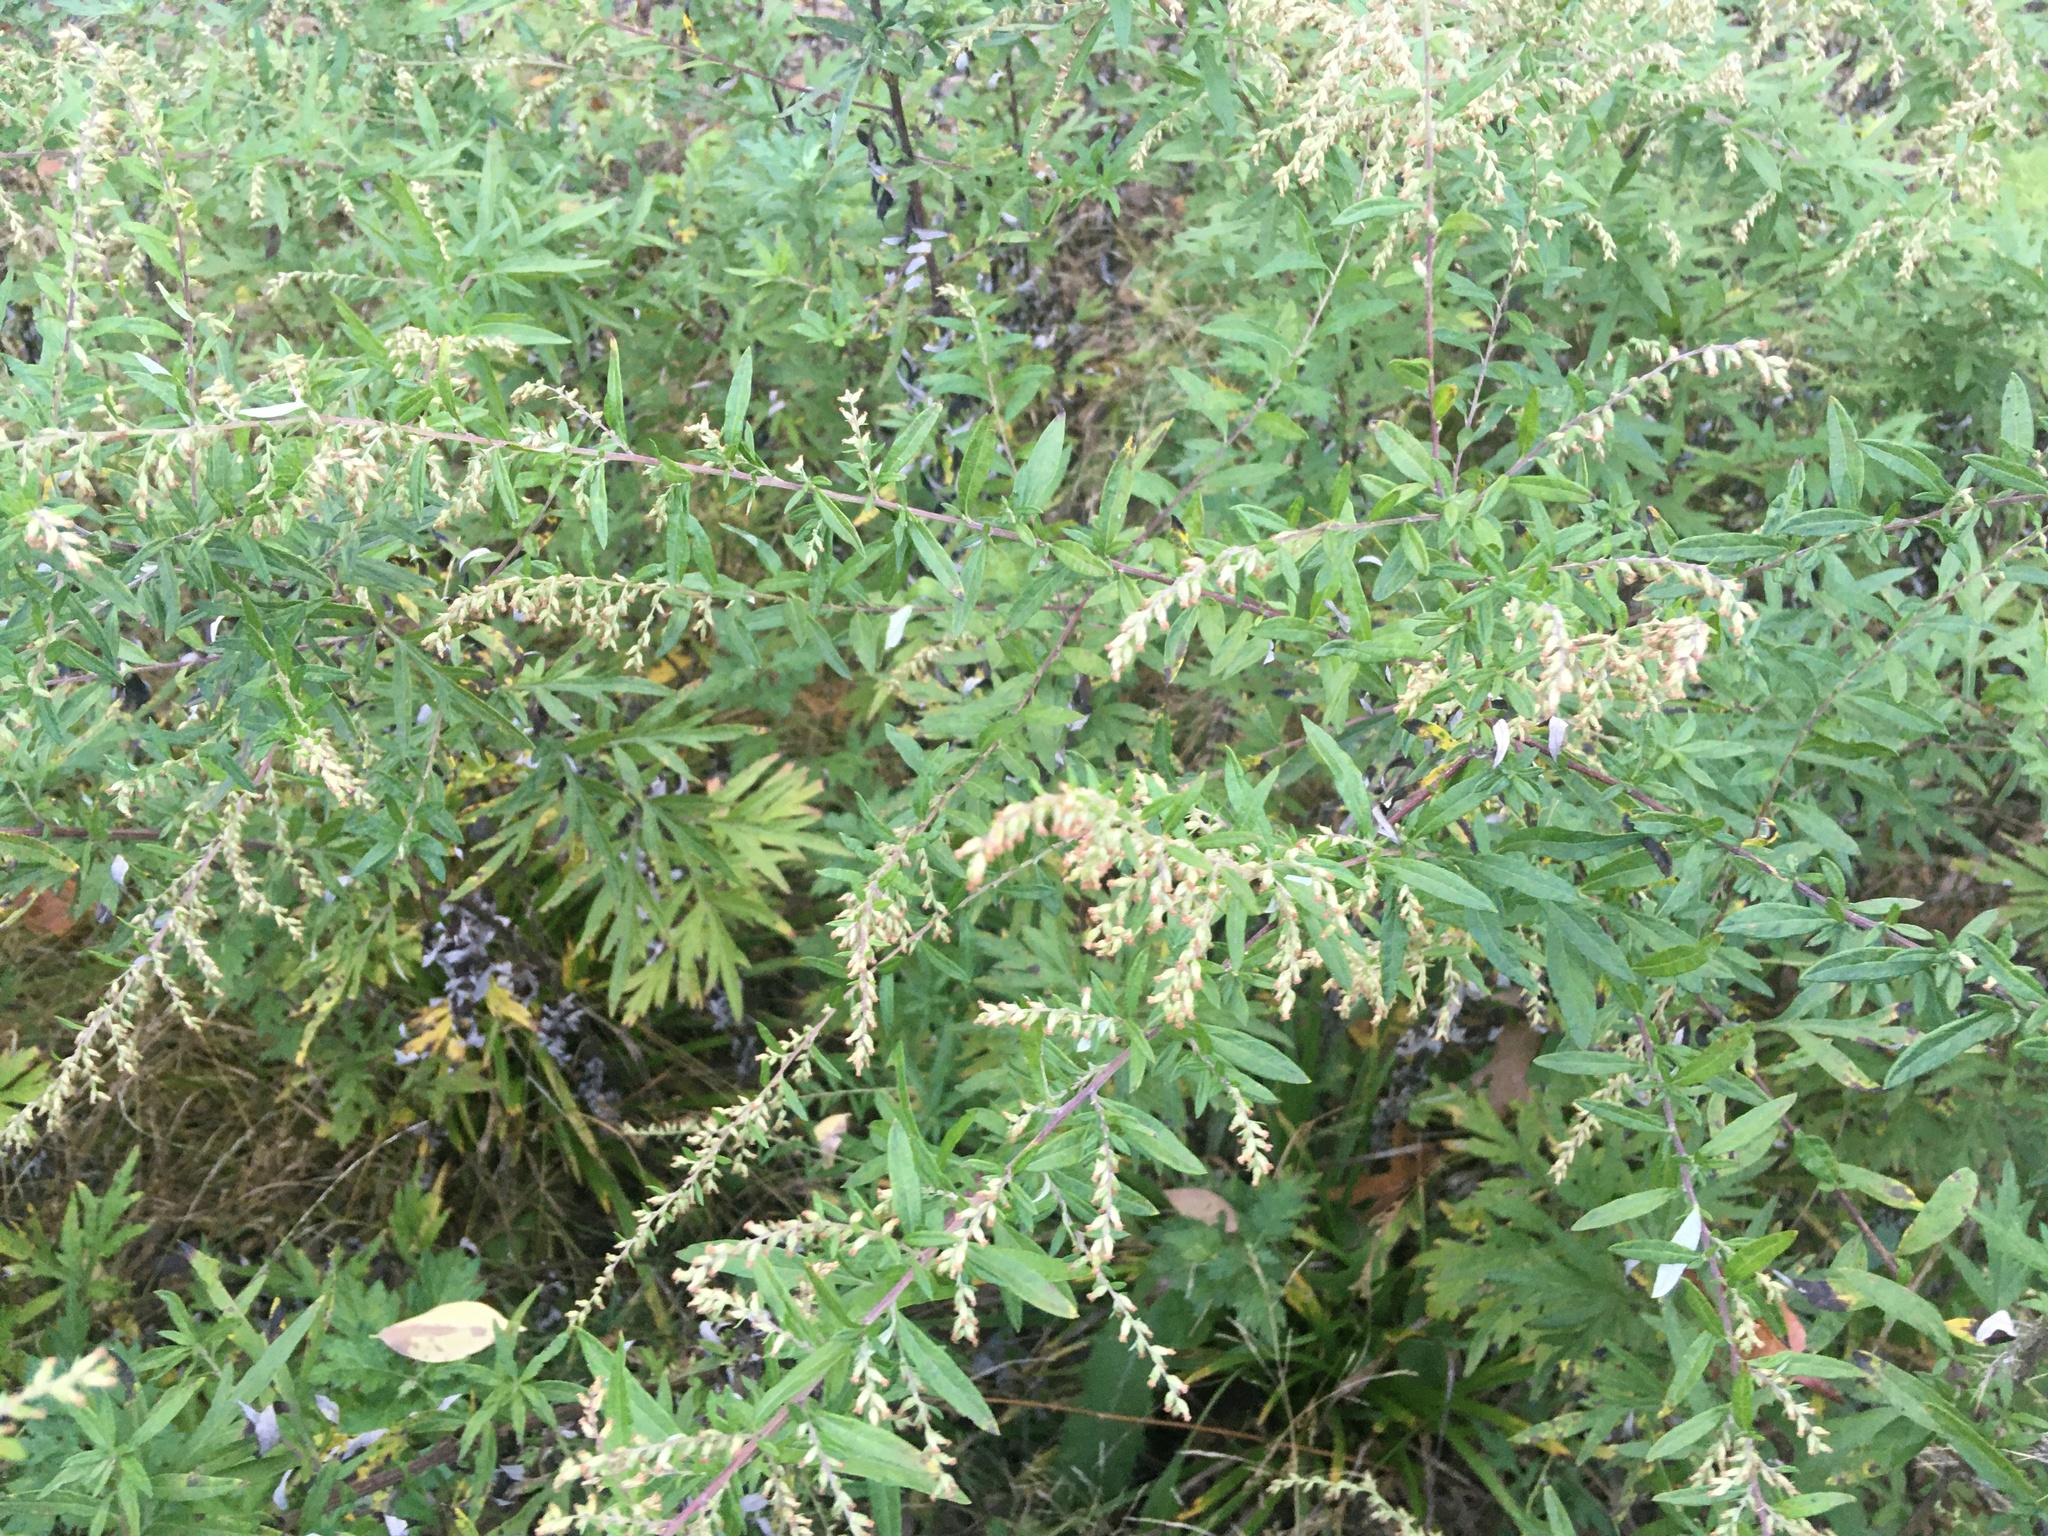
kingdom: Plantae
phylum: Tracheophyta
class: Magnoliopsida
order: Asterales
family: Asteraceae
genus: Artemisia
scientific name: Artemisia vulgaris
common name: Mugwort
